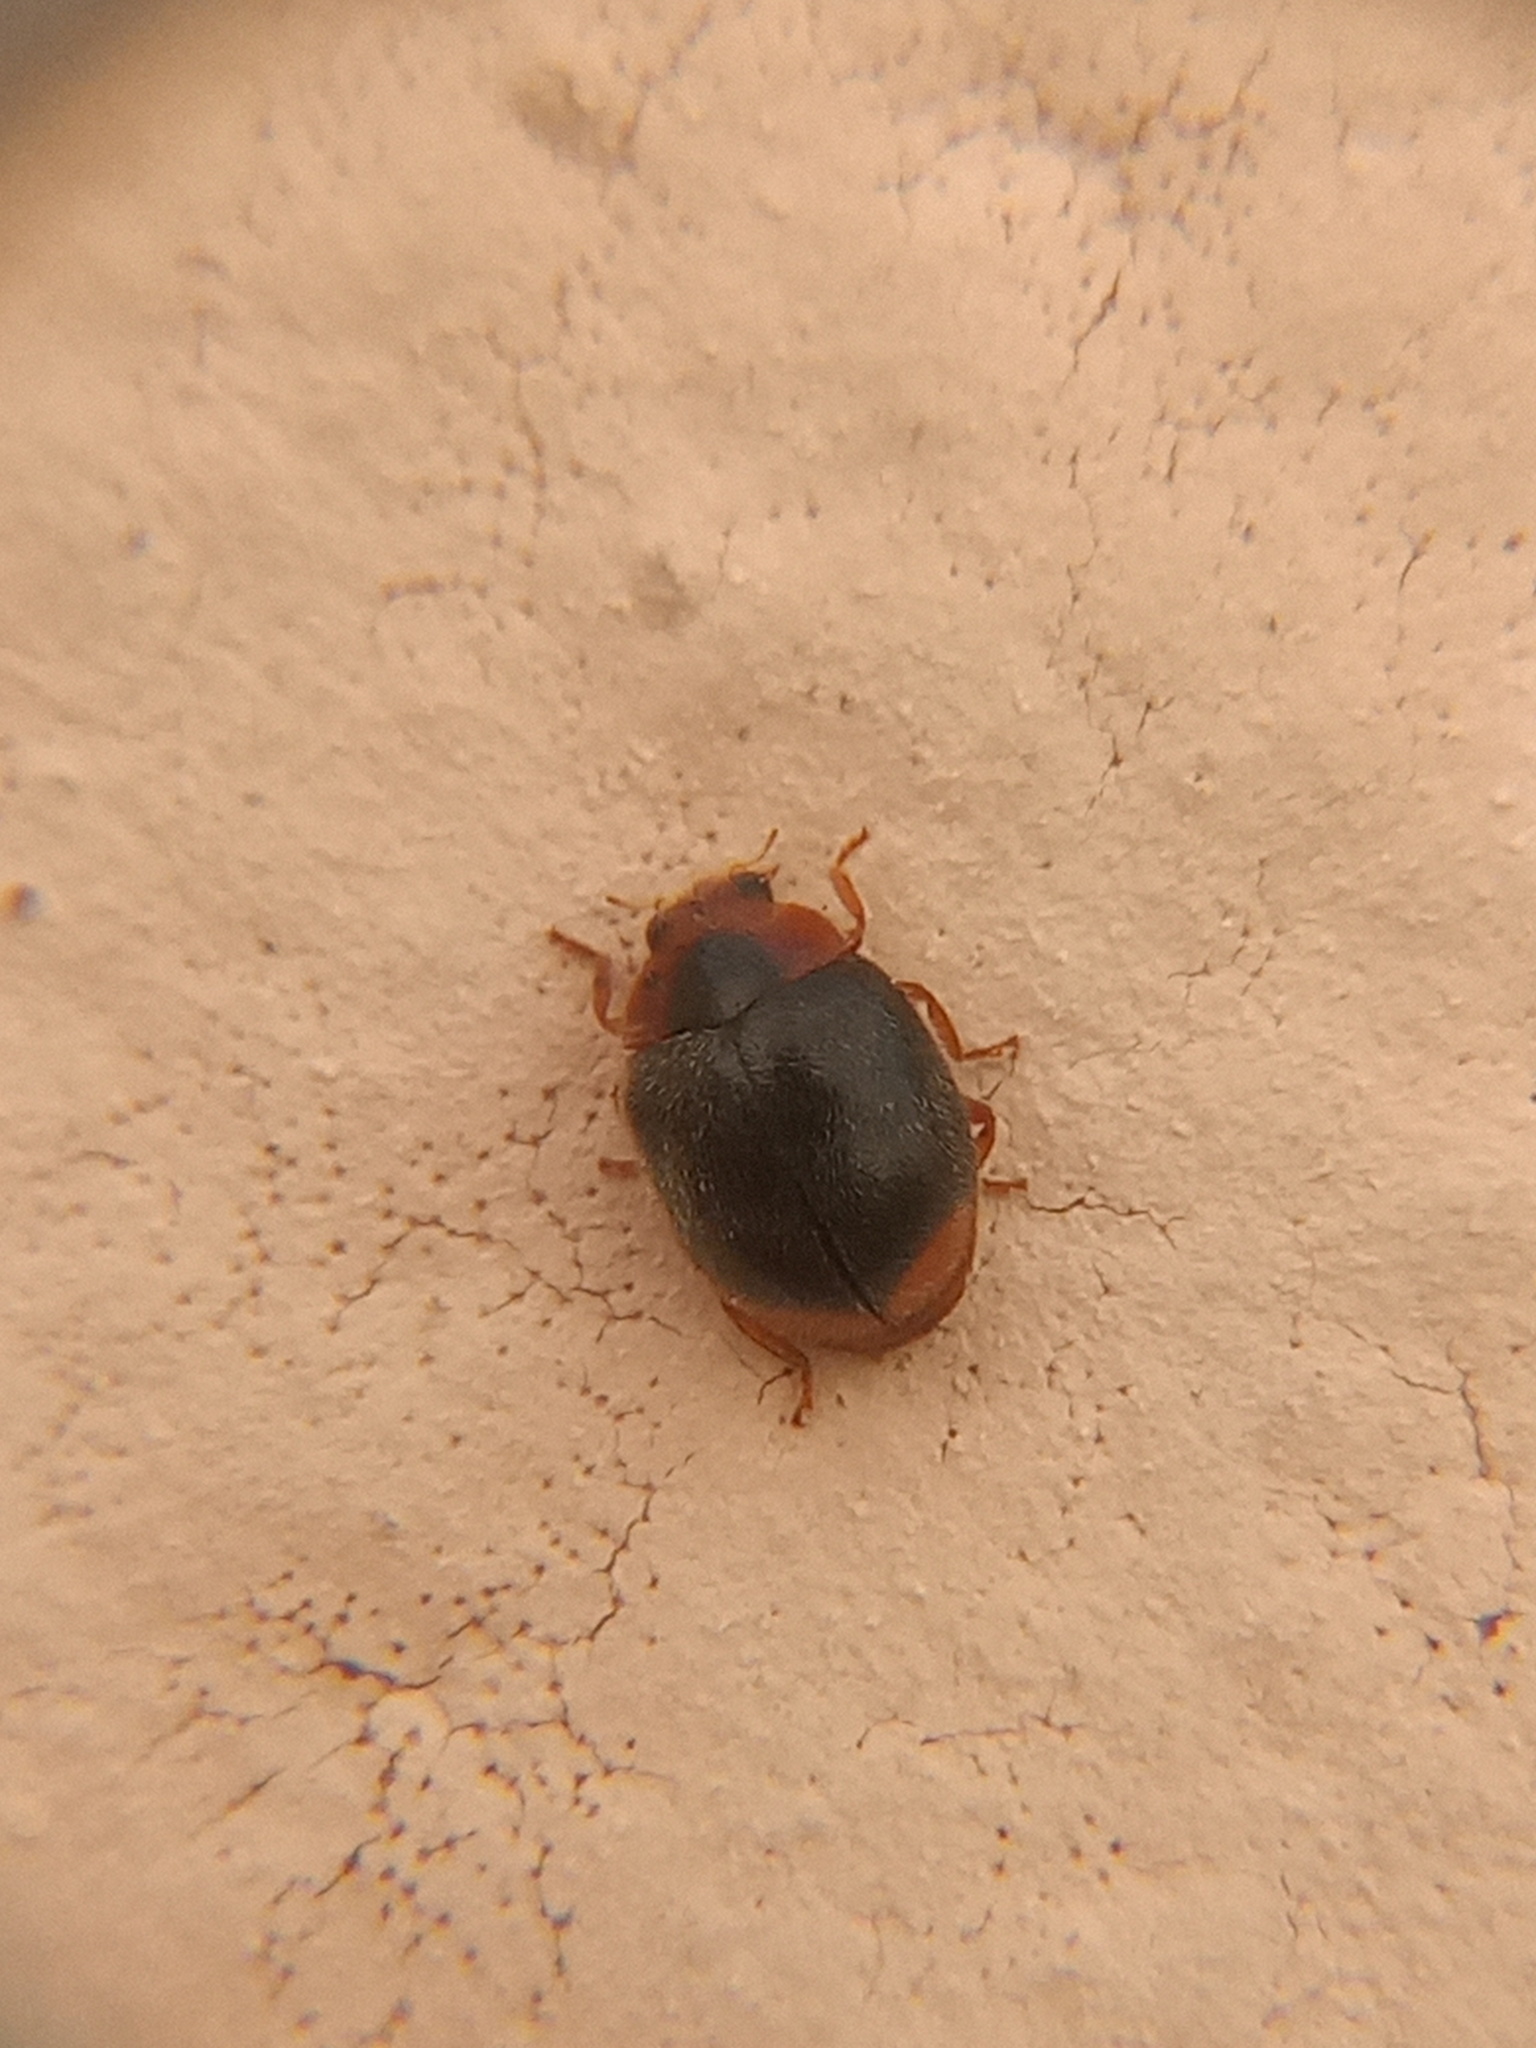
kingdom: Animalia
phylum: Arthropoda
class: Insecta
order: Coleoptera
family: Coccinellidae
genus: Scymnus
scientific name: Scymnus louisianae
